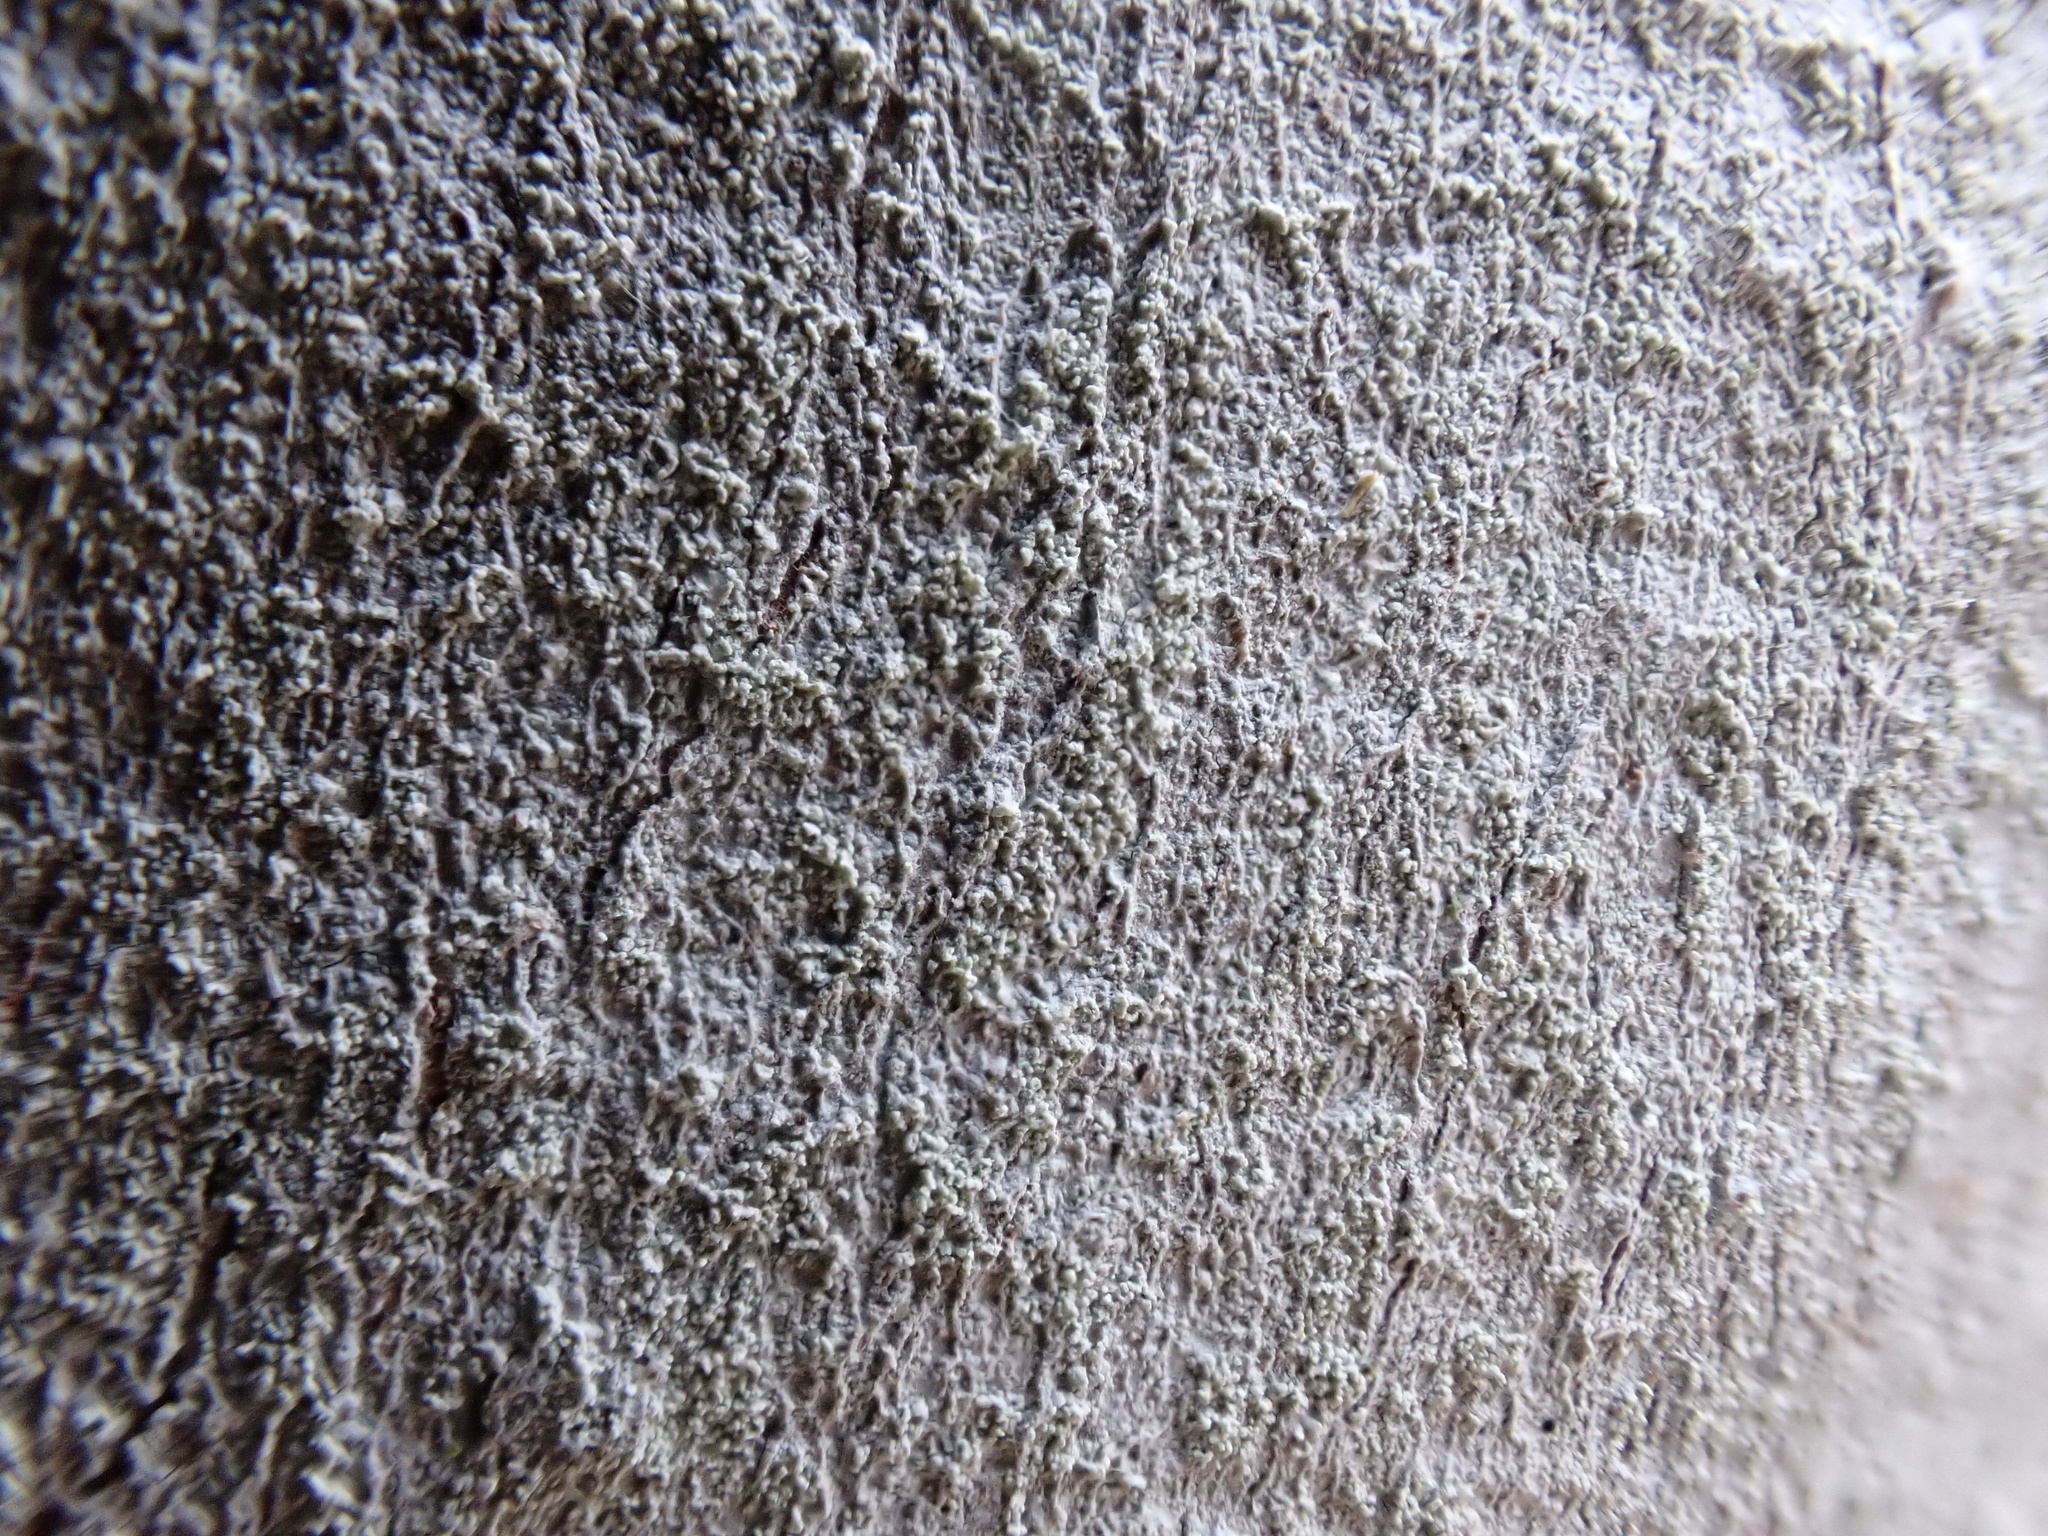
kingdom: Fungi
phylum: Ascomycota
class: Lecanoromycetes
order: Ostropales
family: Phlyctidaceae
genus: Phlyctis
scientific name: Phlyctis argena
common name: Whitewash lichen
